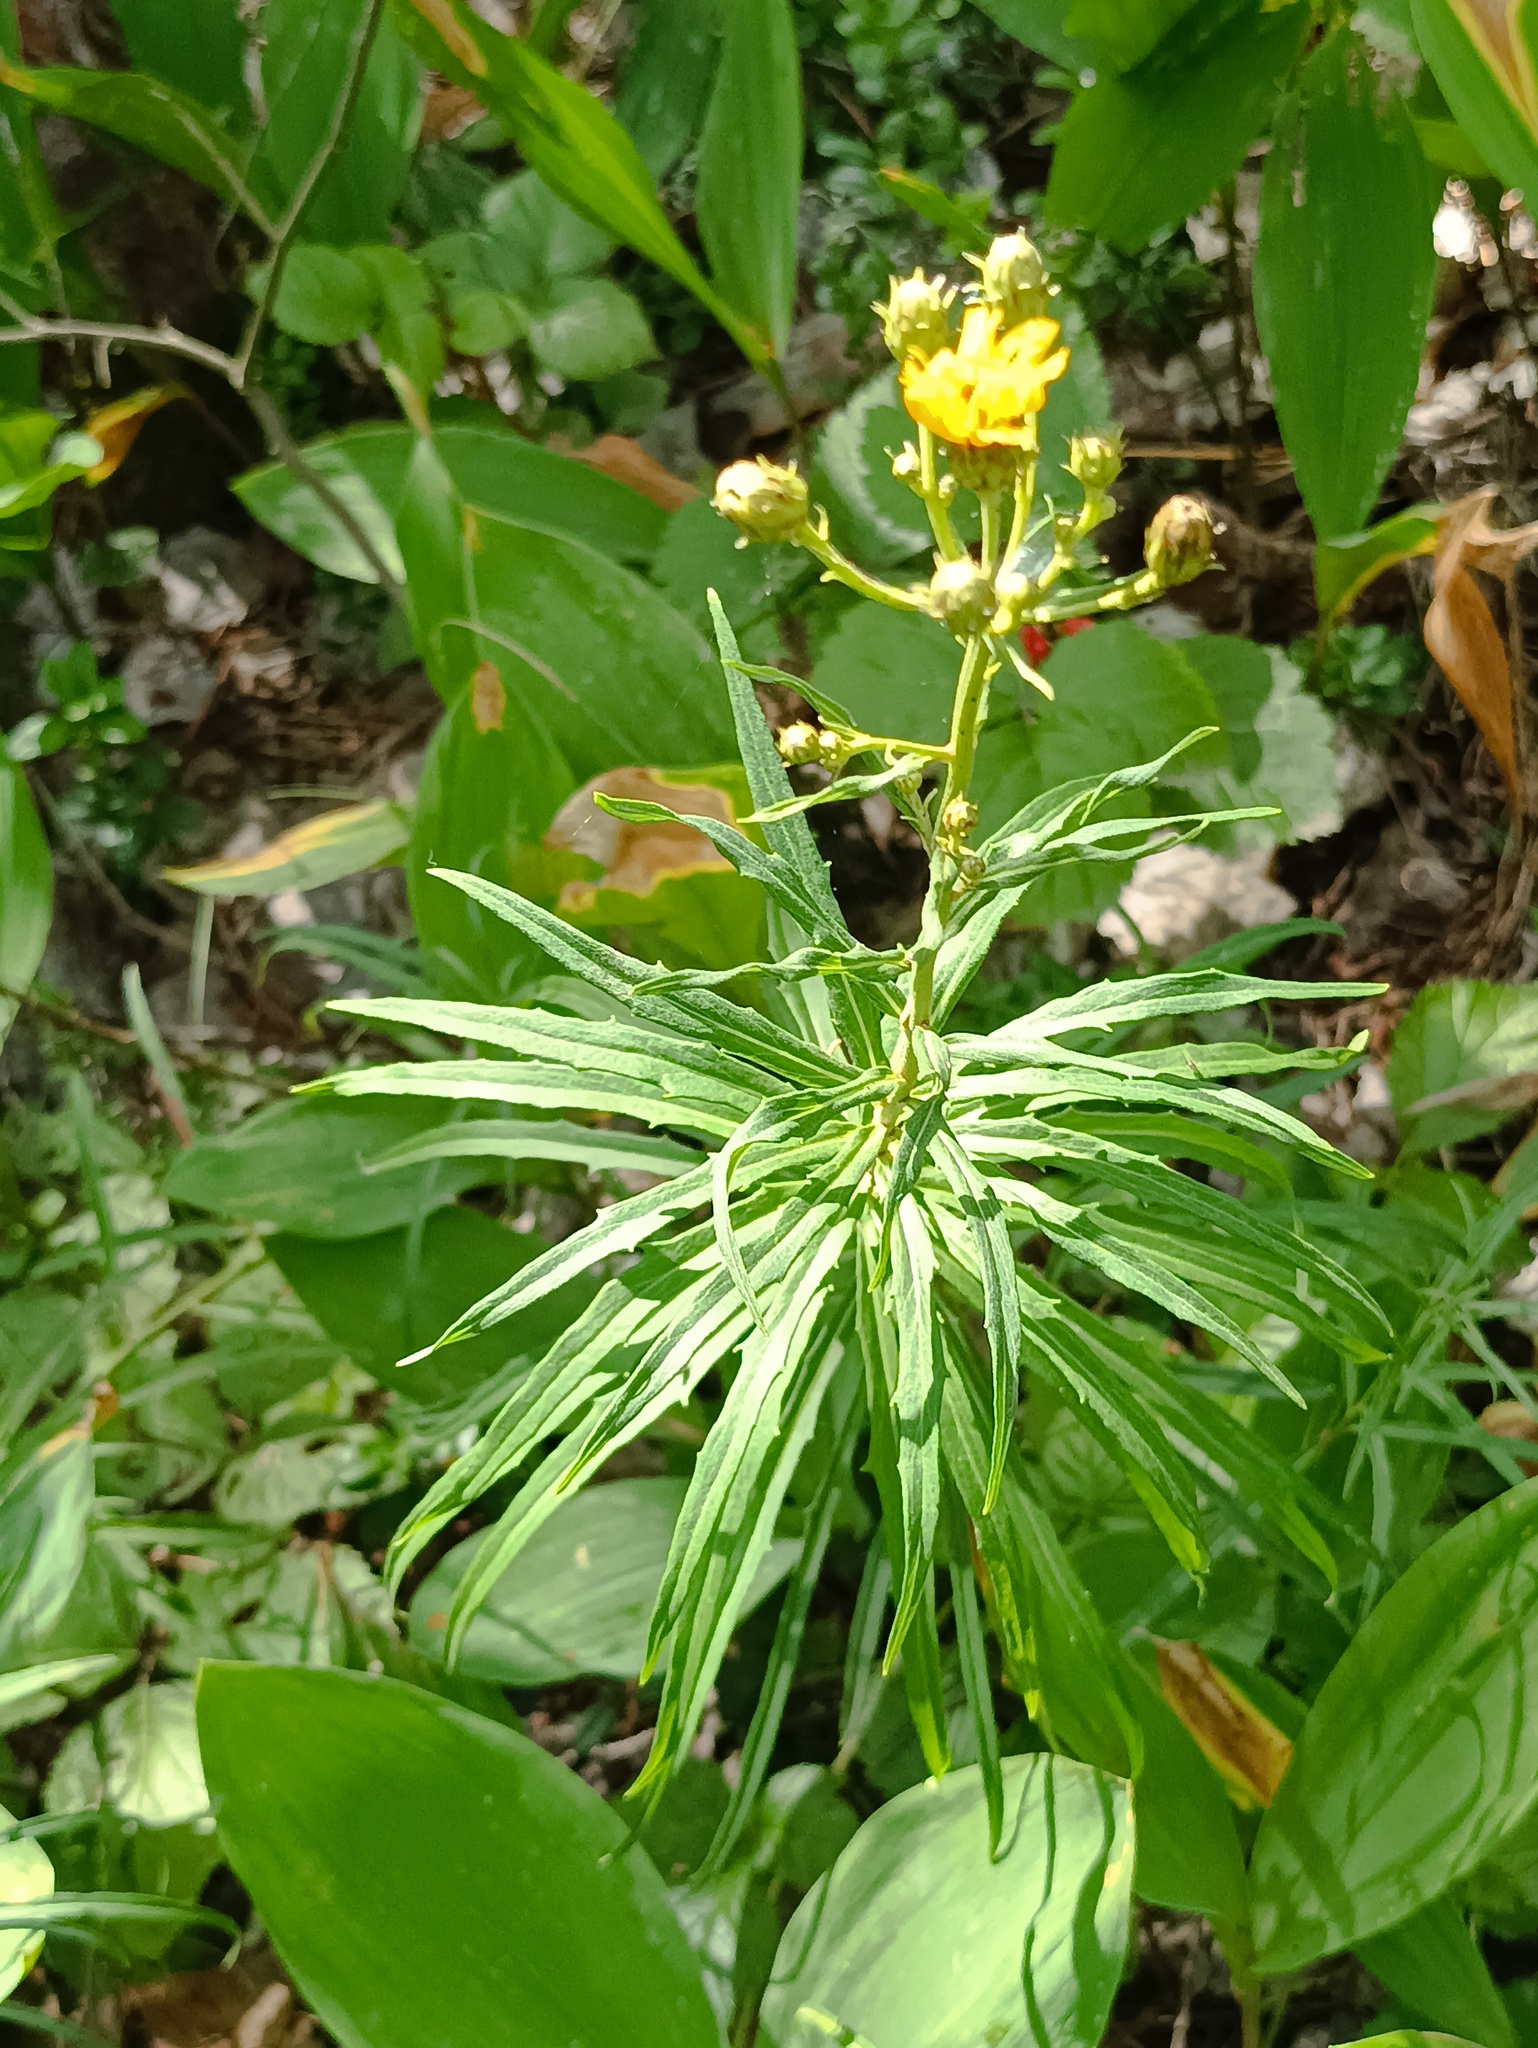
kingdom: Plantae
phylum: Tracheophyta
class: Magnoliopsida
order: Asterales
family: Asteraceae
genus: Hieracium
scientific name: Hieracium umbellatum
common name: Northern hawkweed
